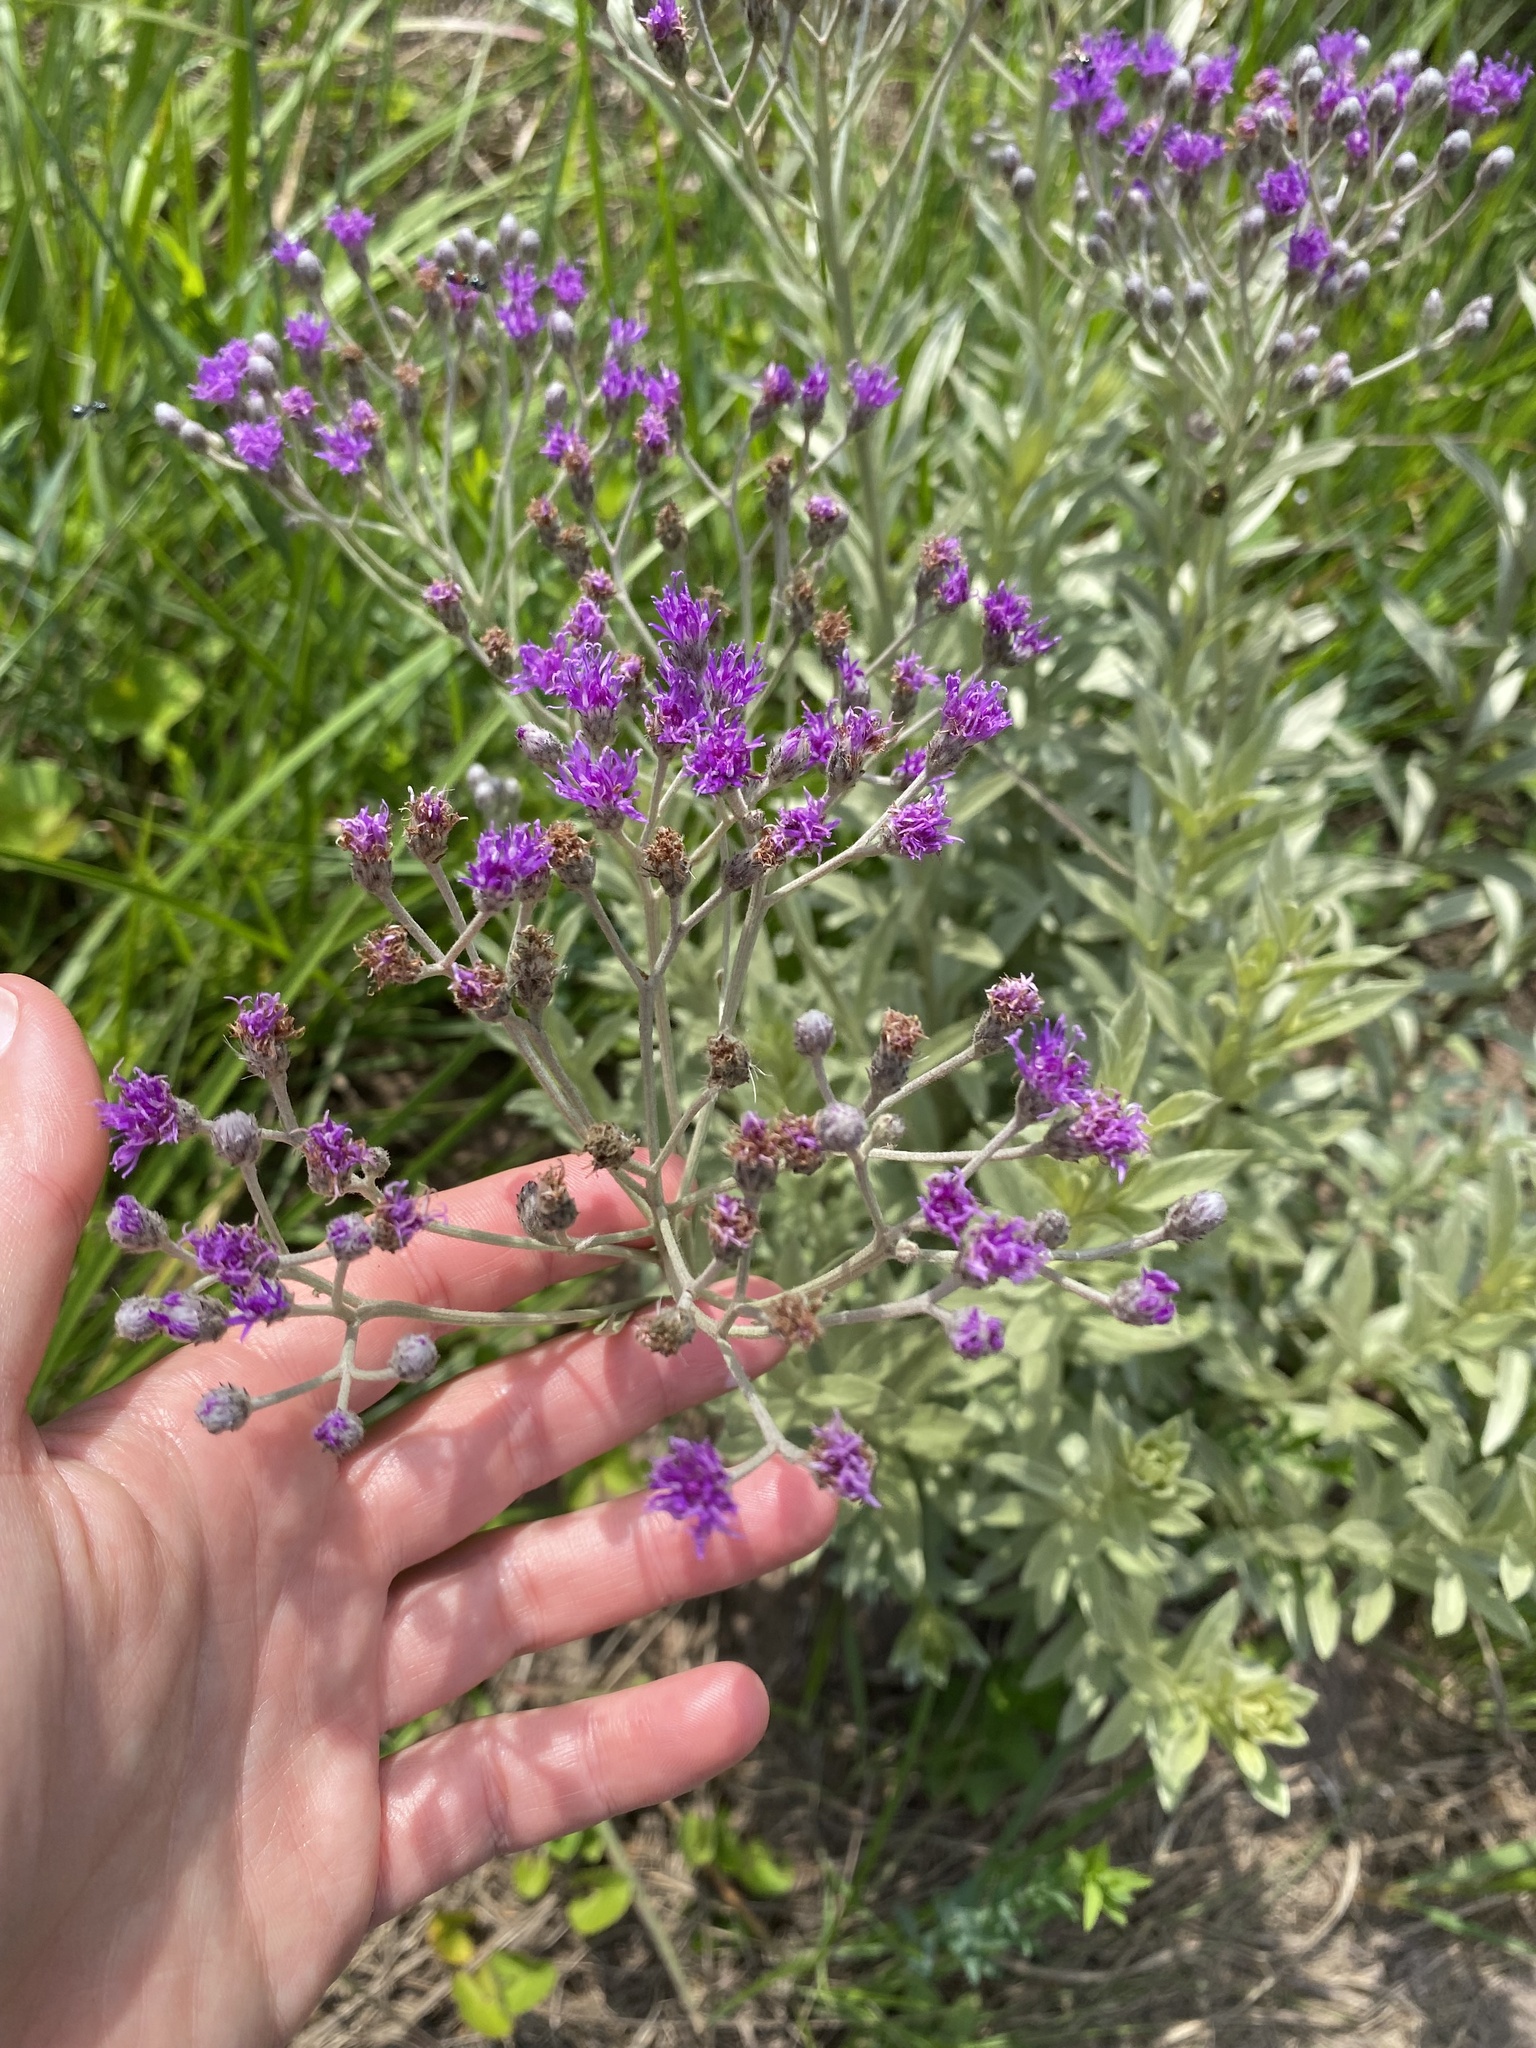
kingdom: Plantae
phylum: Tracheophyta
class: Magnoliopsida
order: Asterales
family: Asteraceae
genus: Hilliardiella
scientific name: Hilliardiella aristata
